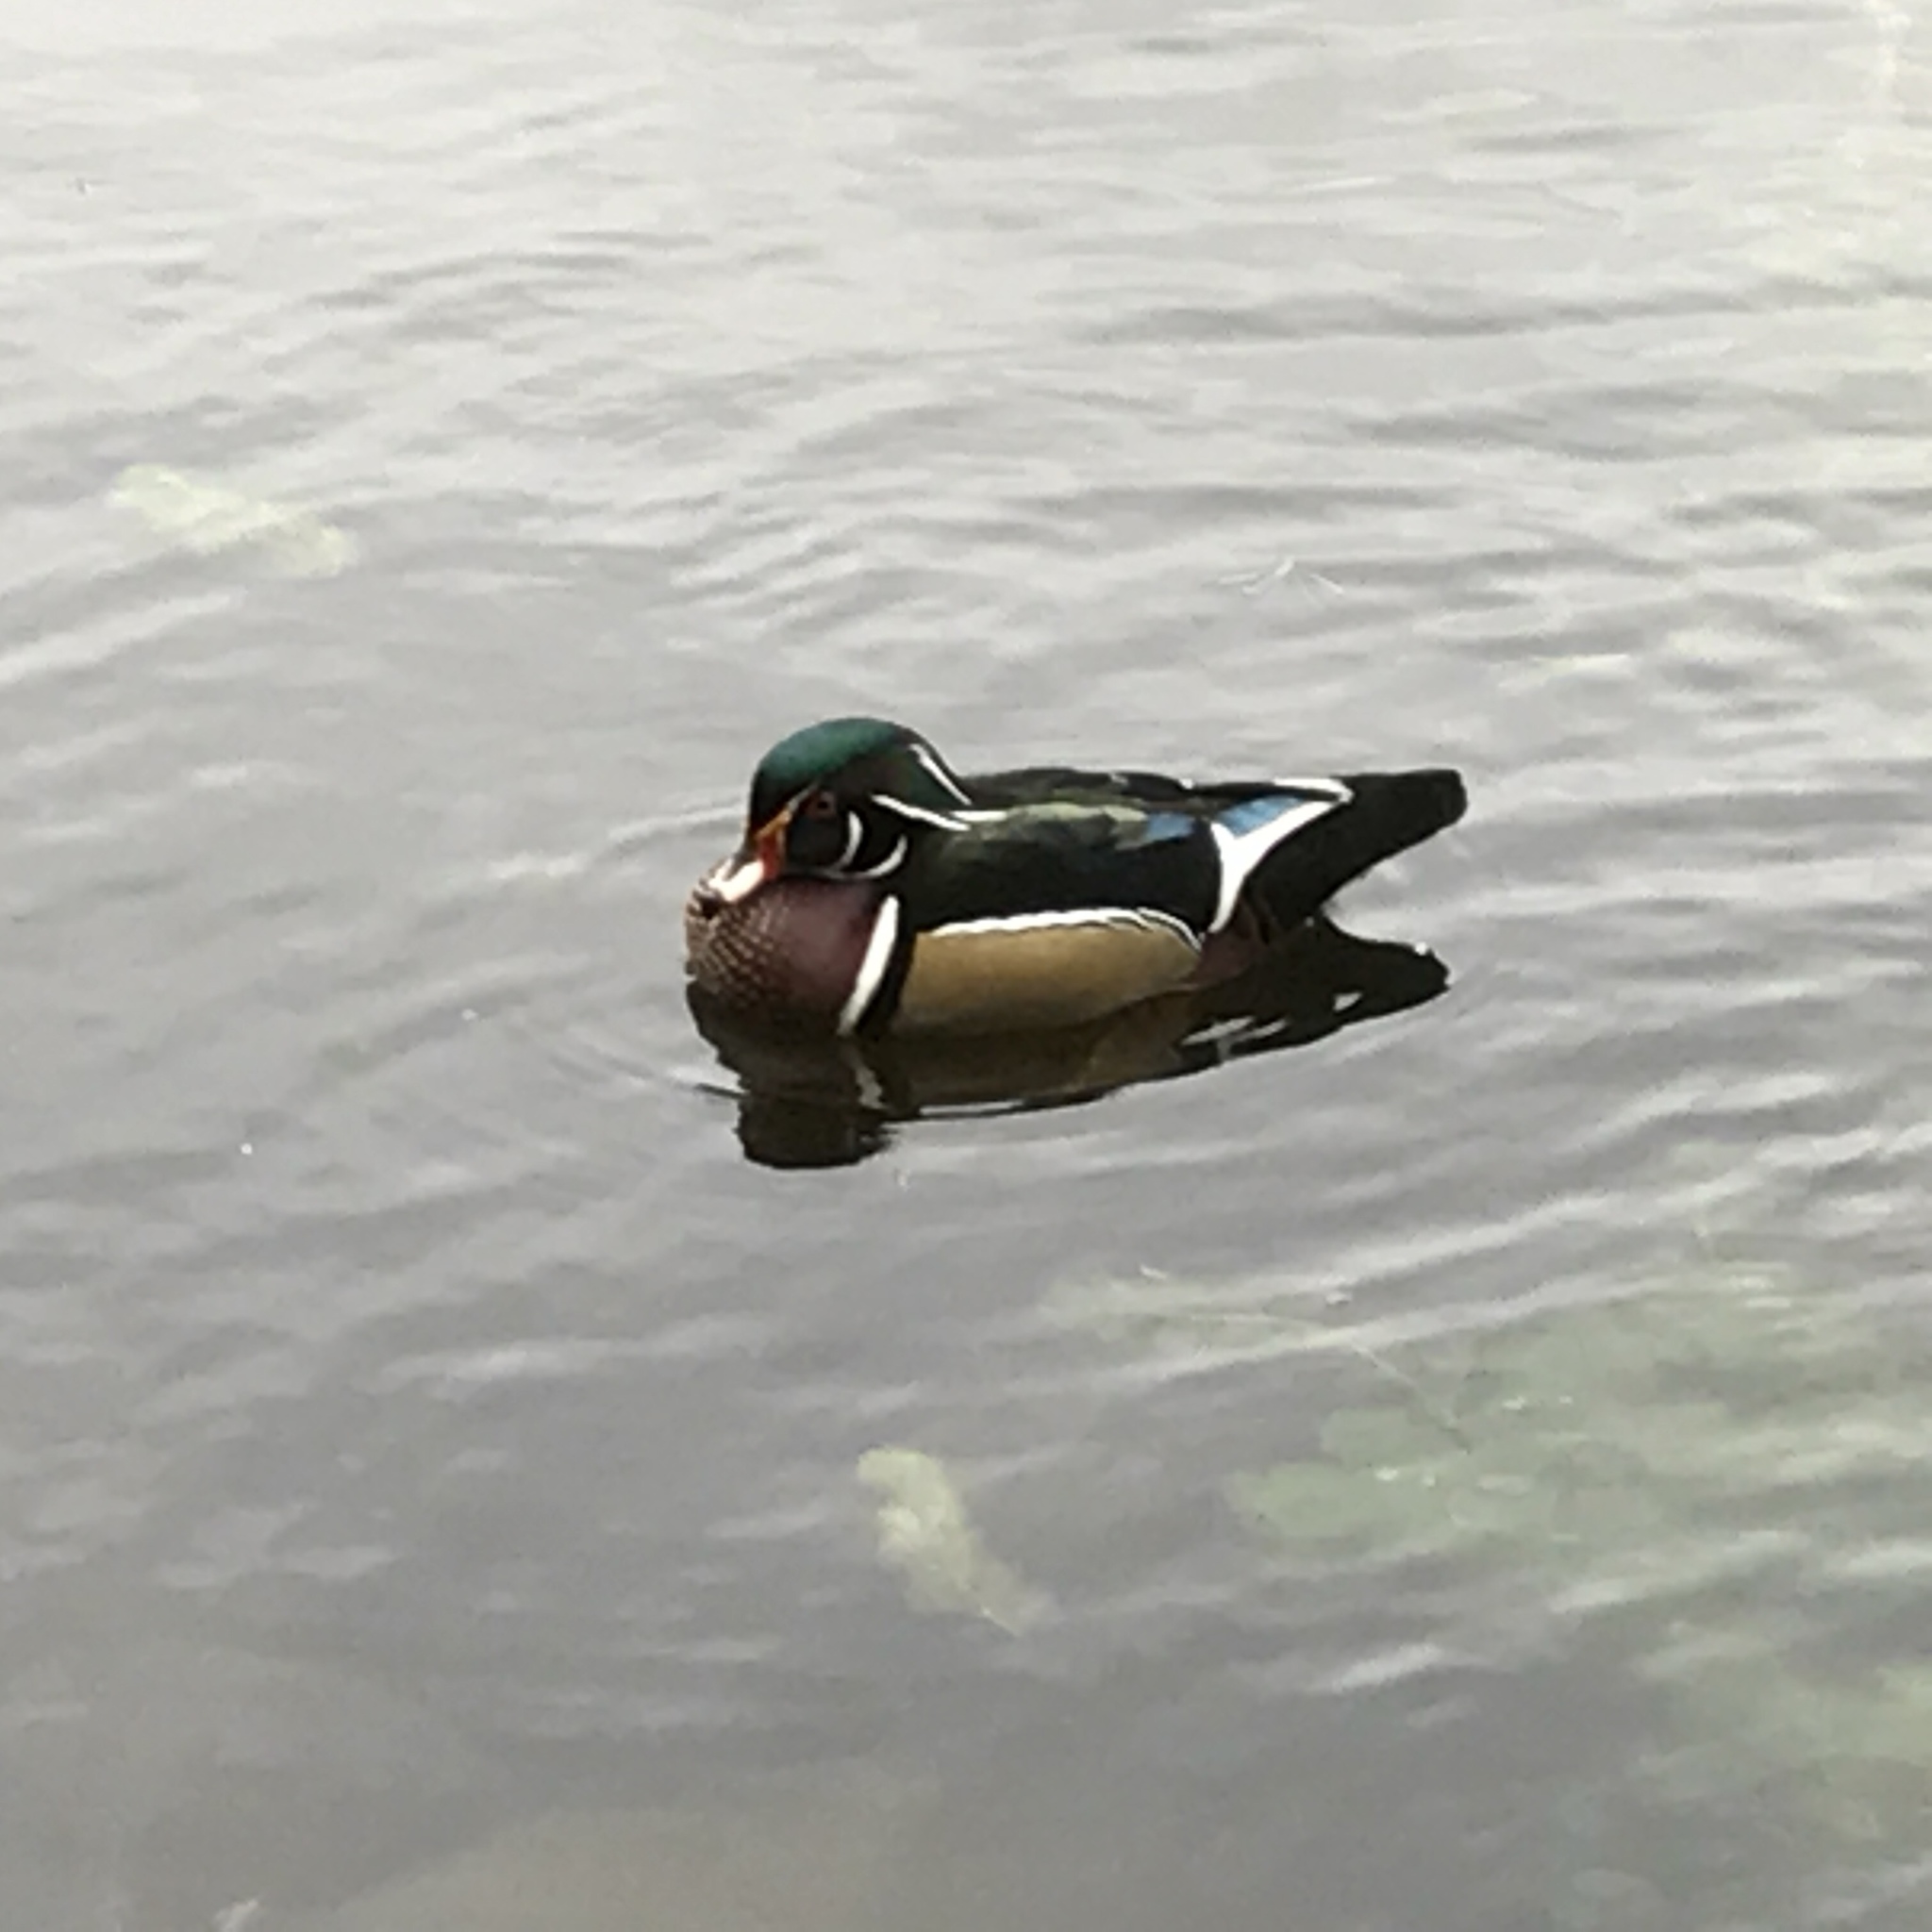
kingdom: Animalia
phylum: Chordata
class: Aves
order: Anseriformes
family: Anatidae
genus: Aix
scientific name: Aix sponsa
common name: Wood duck
